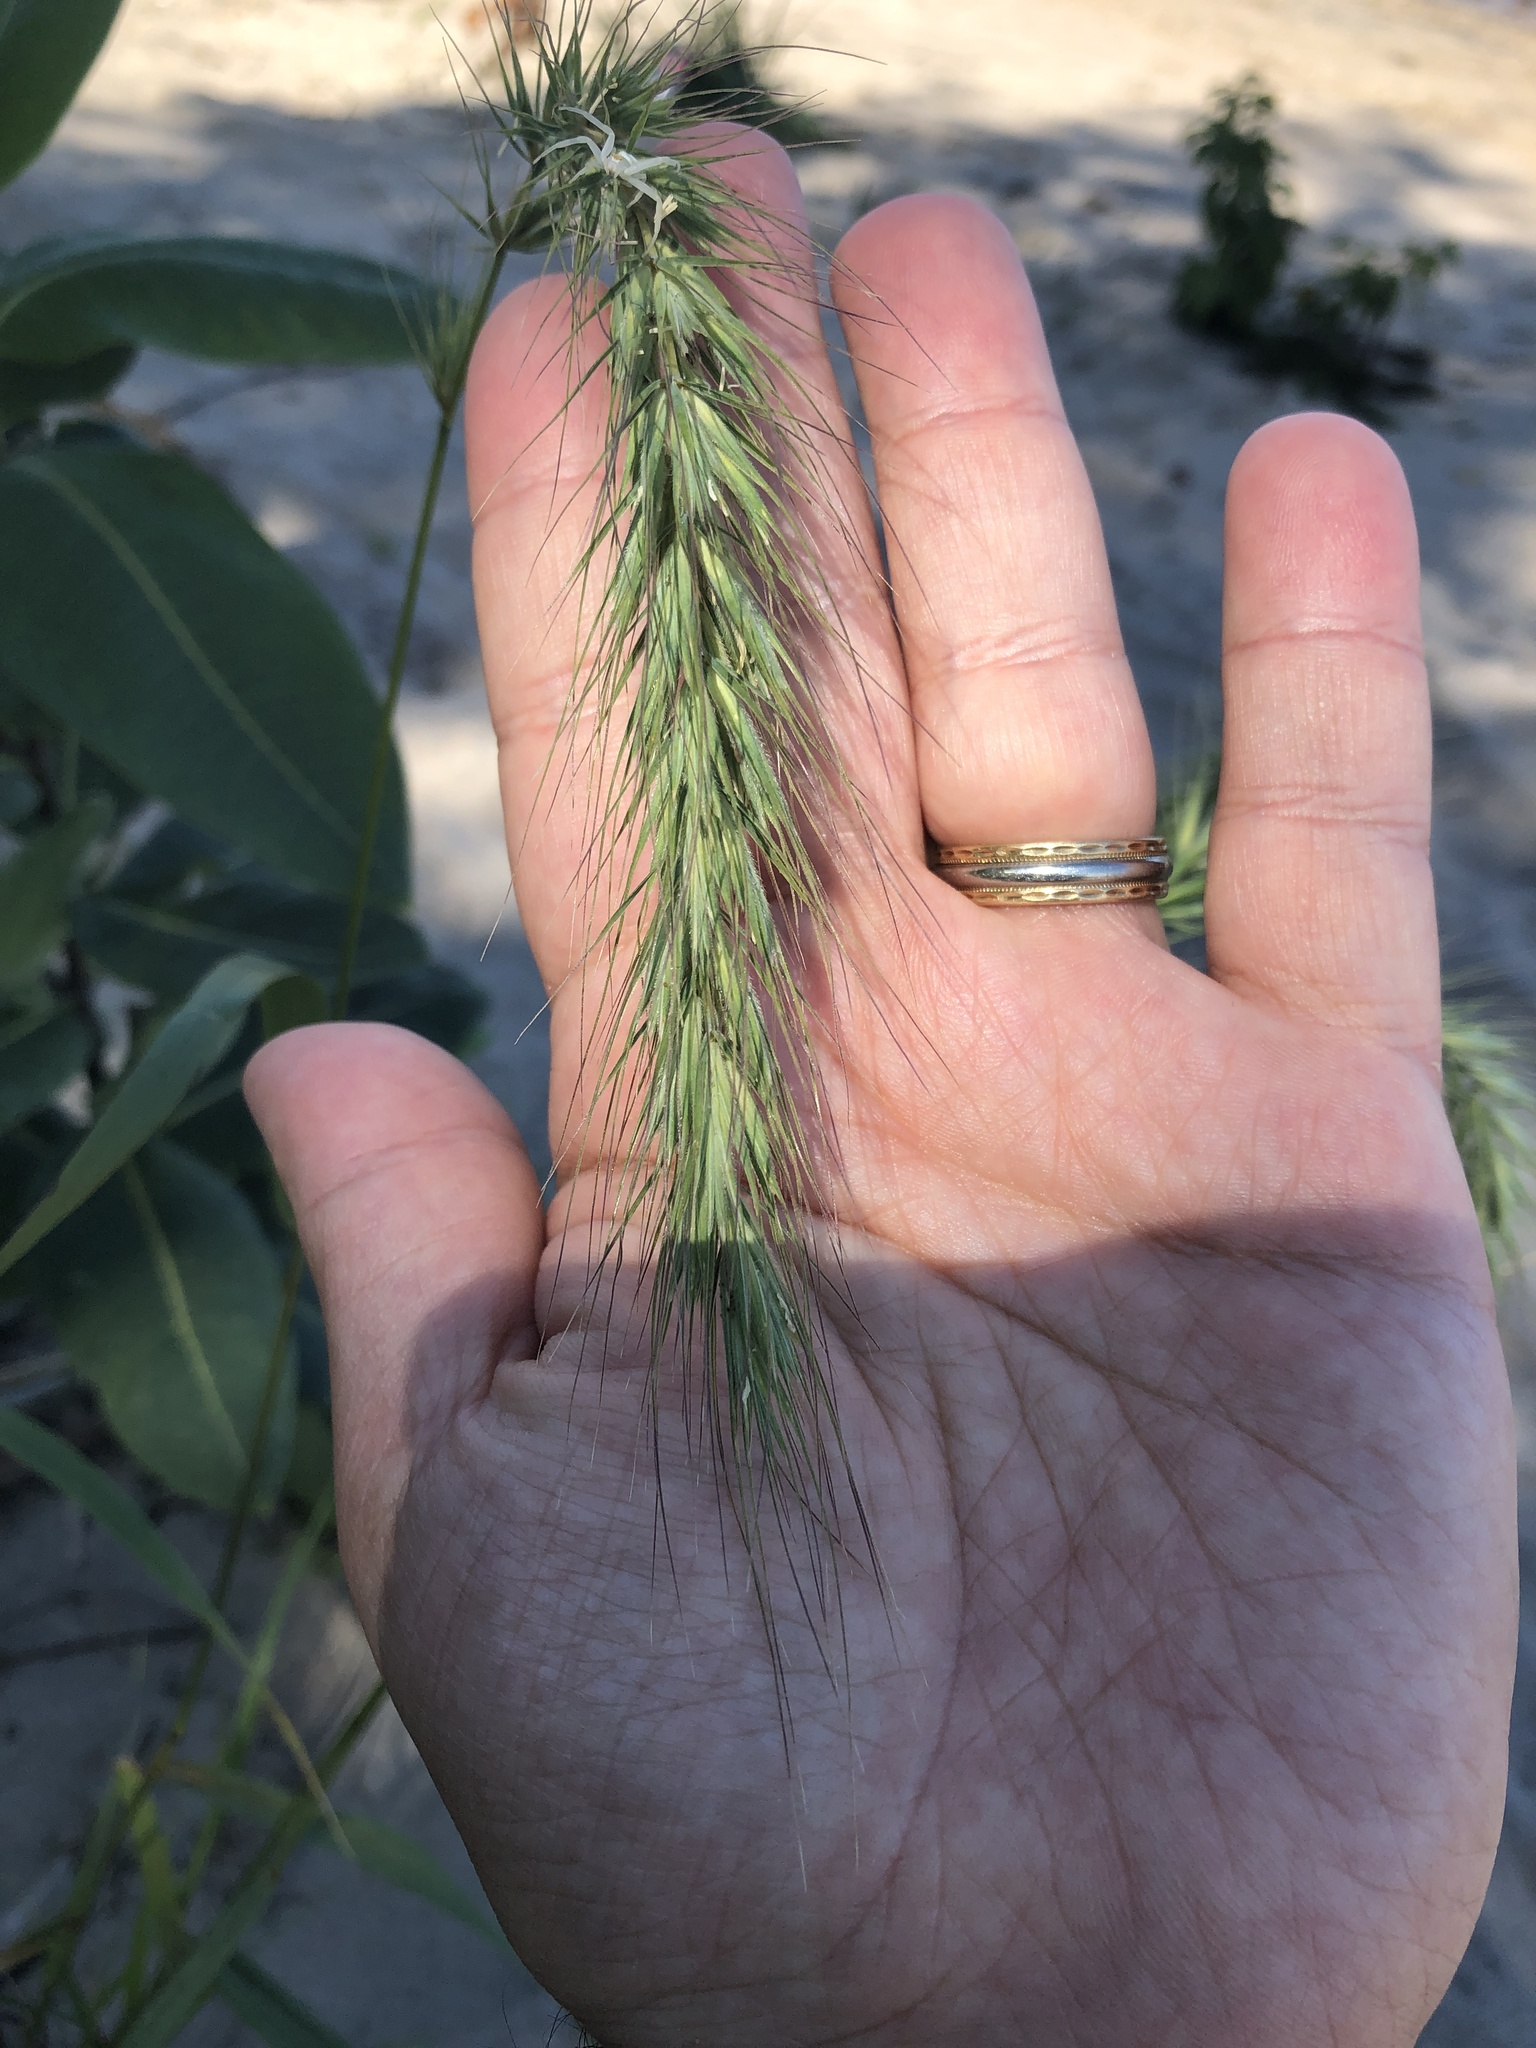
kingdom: Plantae
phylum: Tracheophyta
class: Liliopsida
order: Poales
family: Poaceae
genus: Elymus
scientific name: Elymus canadensis
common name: Canada wild rye
